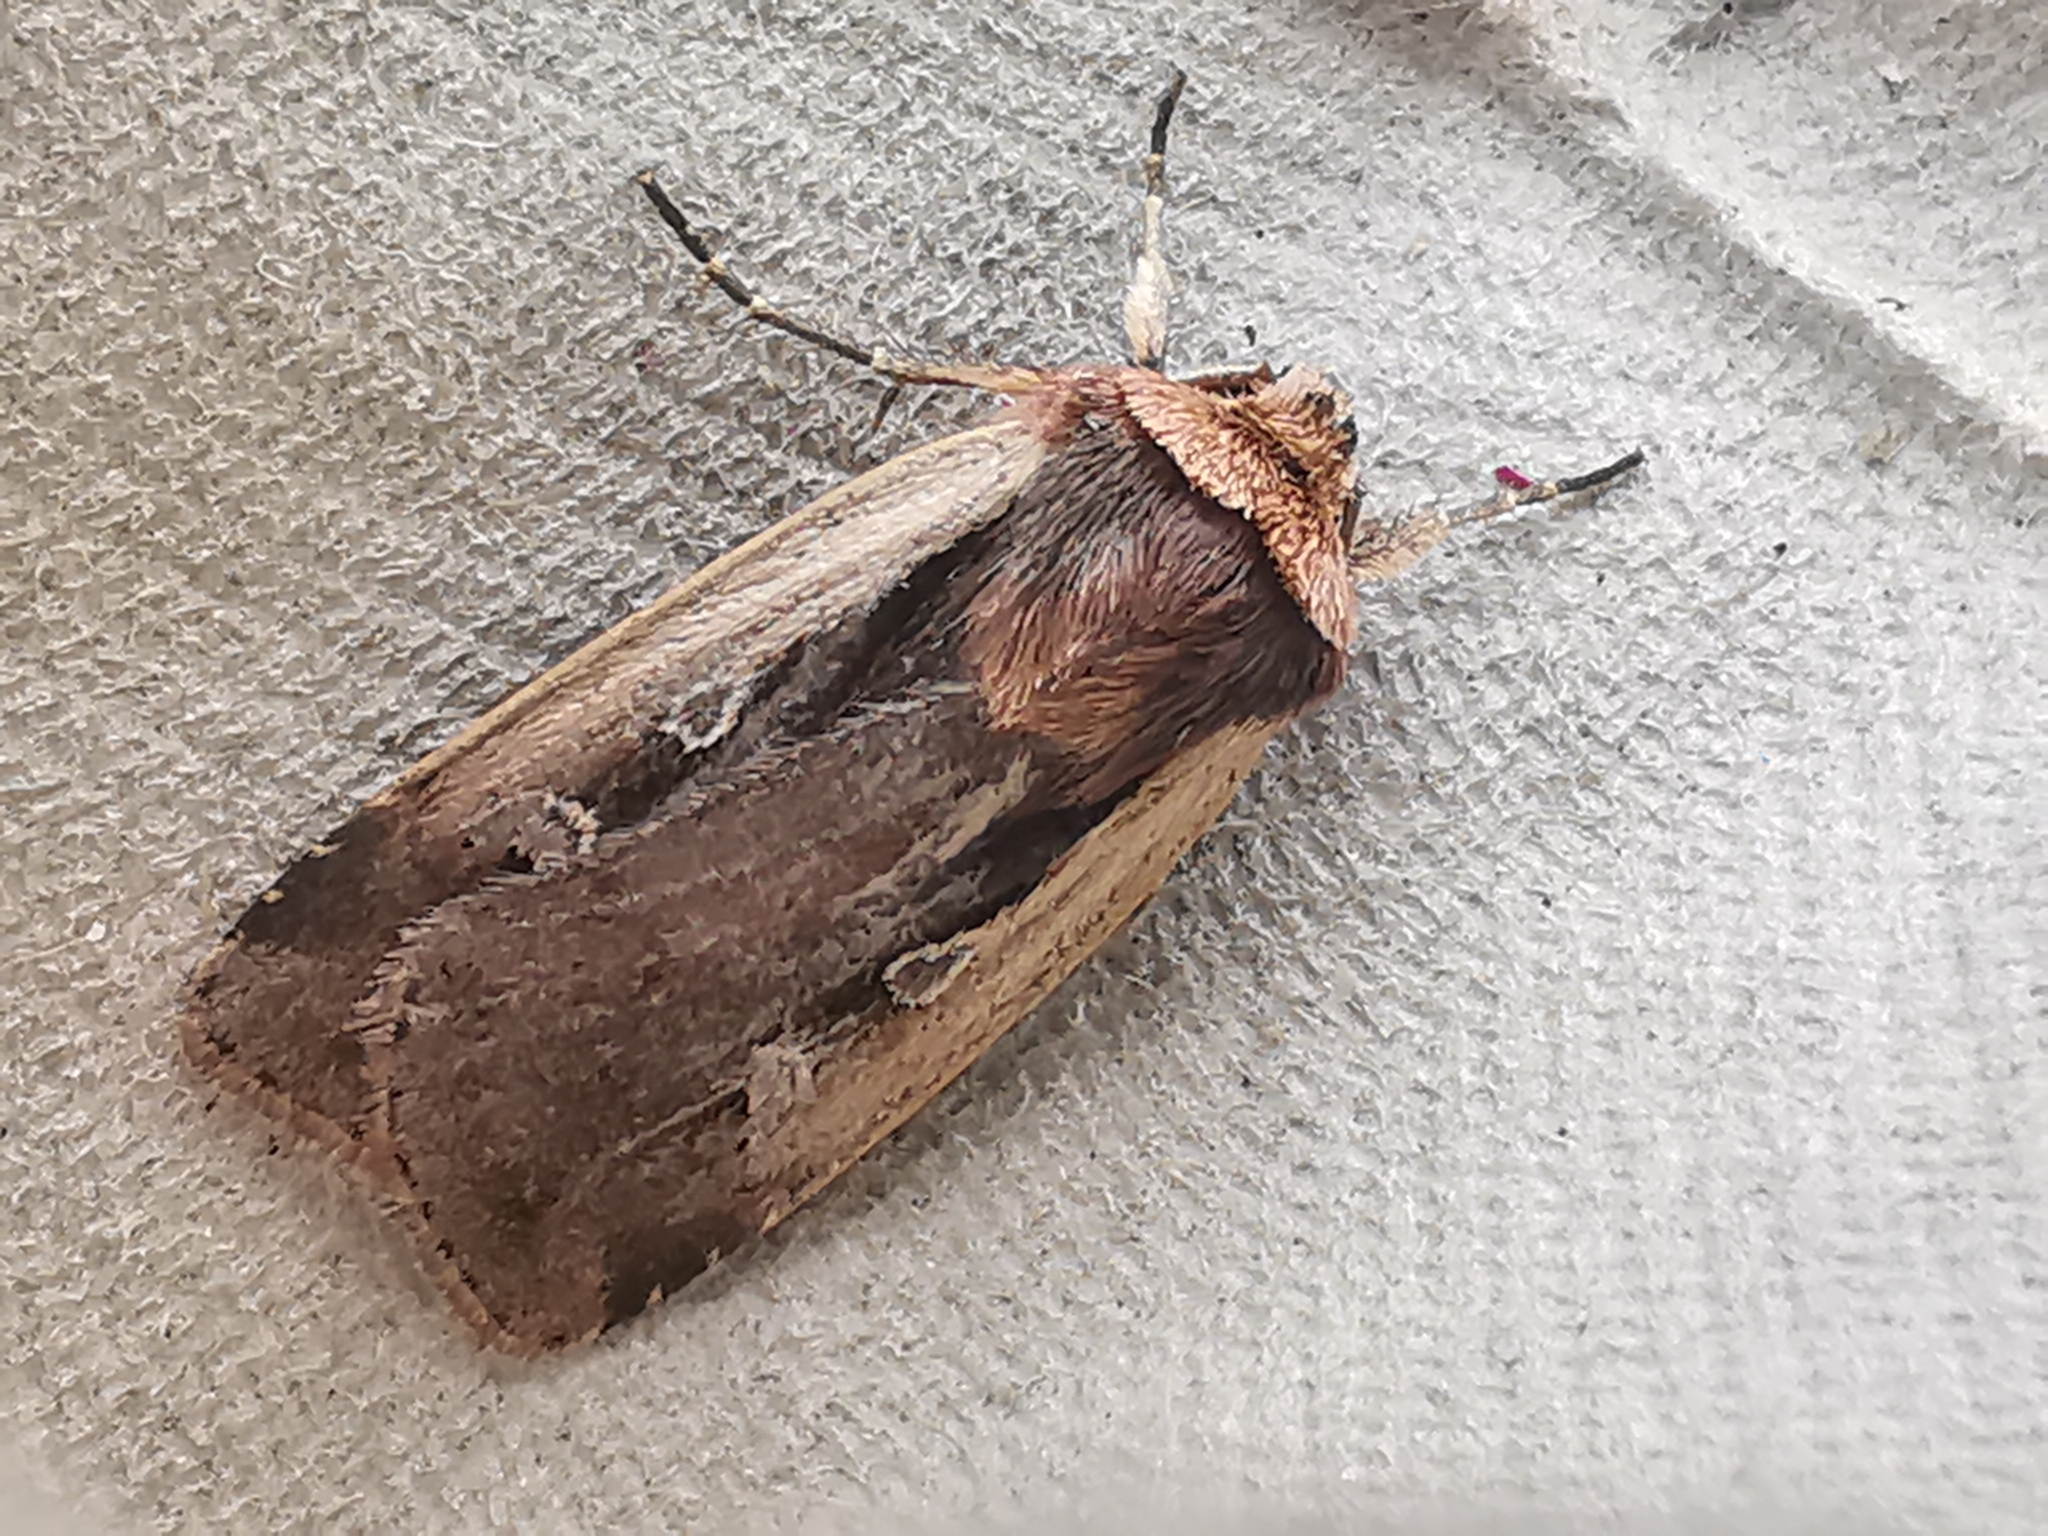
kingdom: Animalia
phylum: Arthropoda
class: Insecta
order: Lepidoptera
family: Noctuidae
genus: Ochropleura
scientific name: Ochropleura plecta
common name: Flame shoulder
